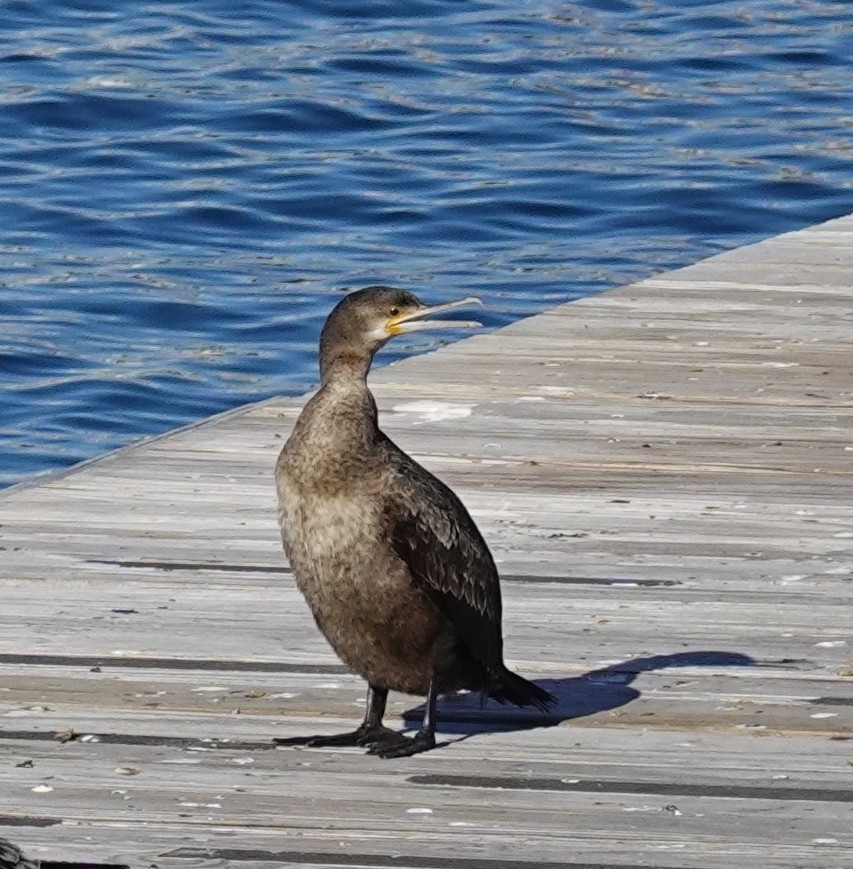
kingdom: Animalia
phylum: Chordata
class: Aves
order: Suliformes
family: Phalacrocoracidae
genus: Phalacrocorax
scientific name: Phalacrocorax capensis
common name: Cape cormorant
